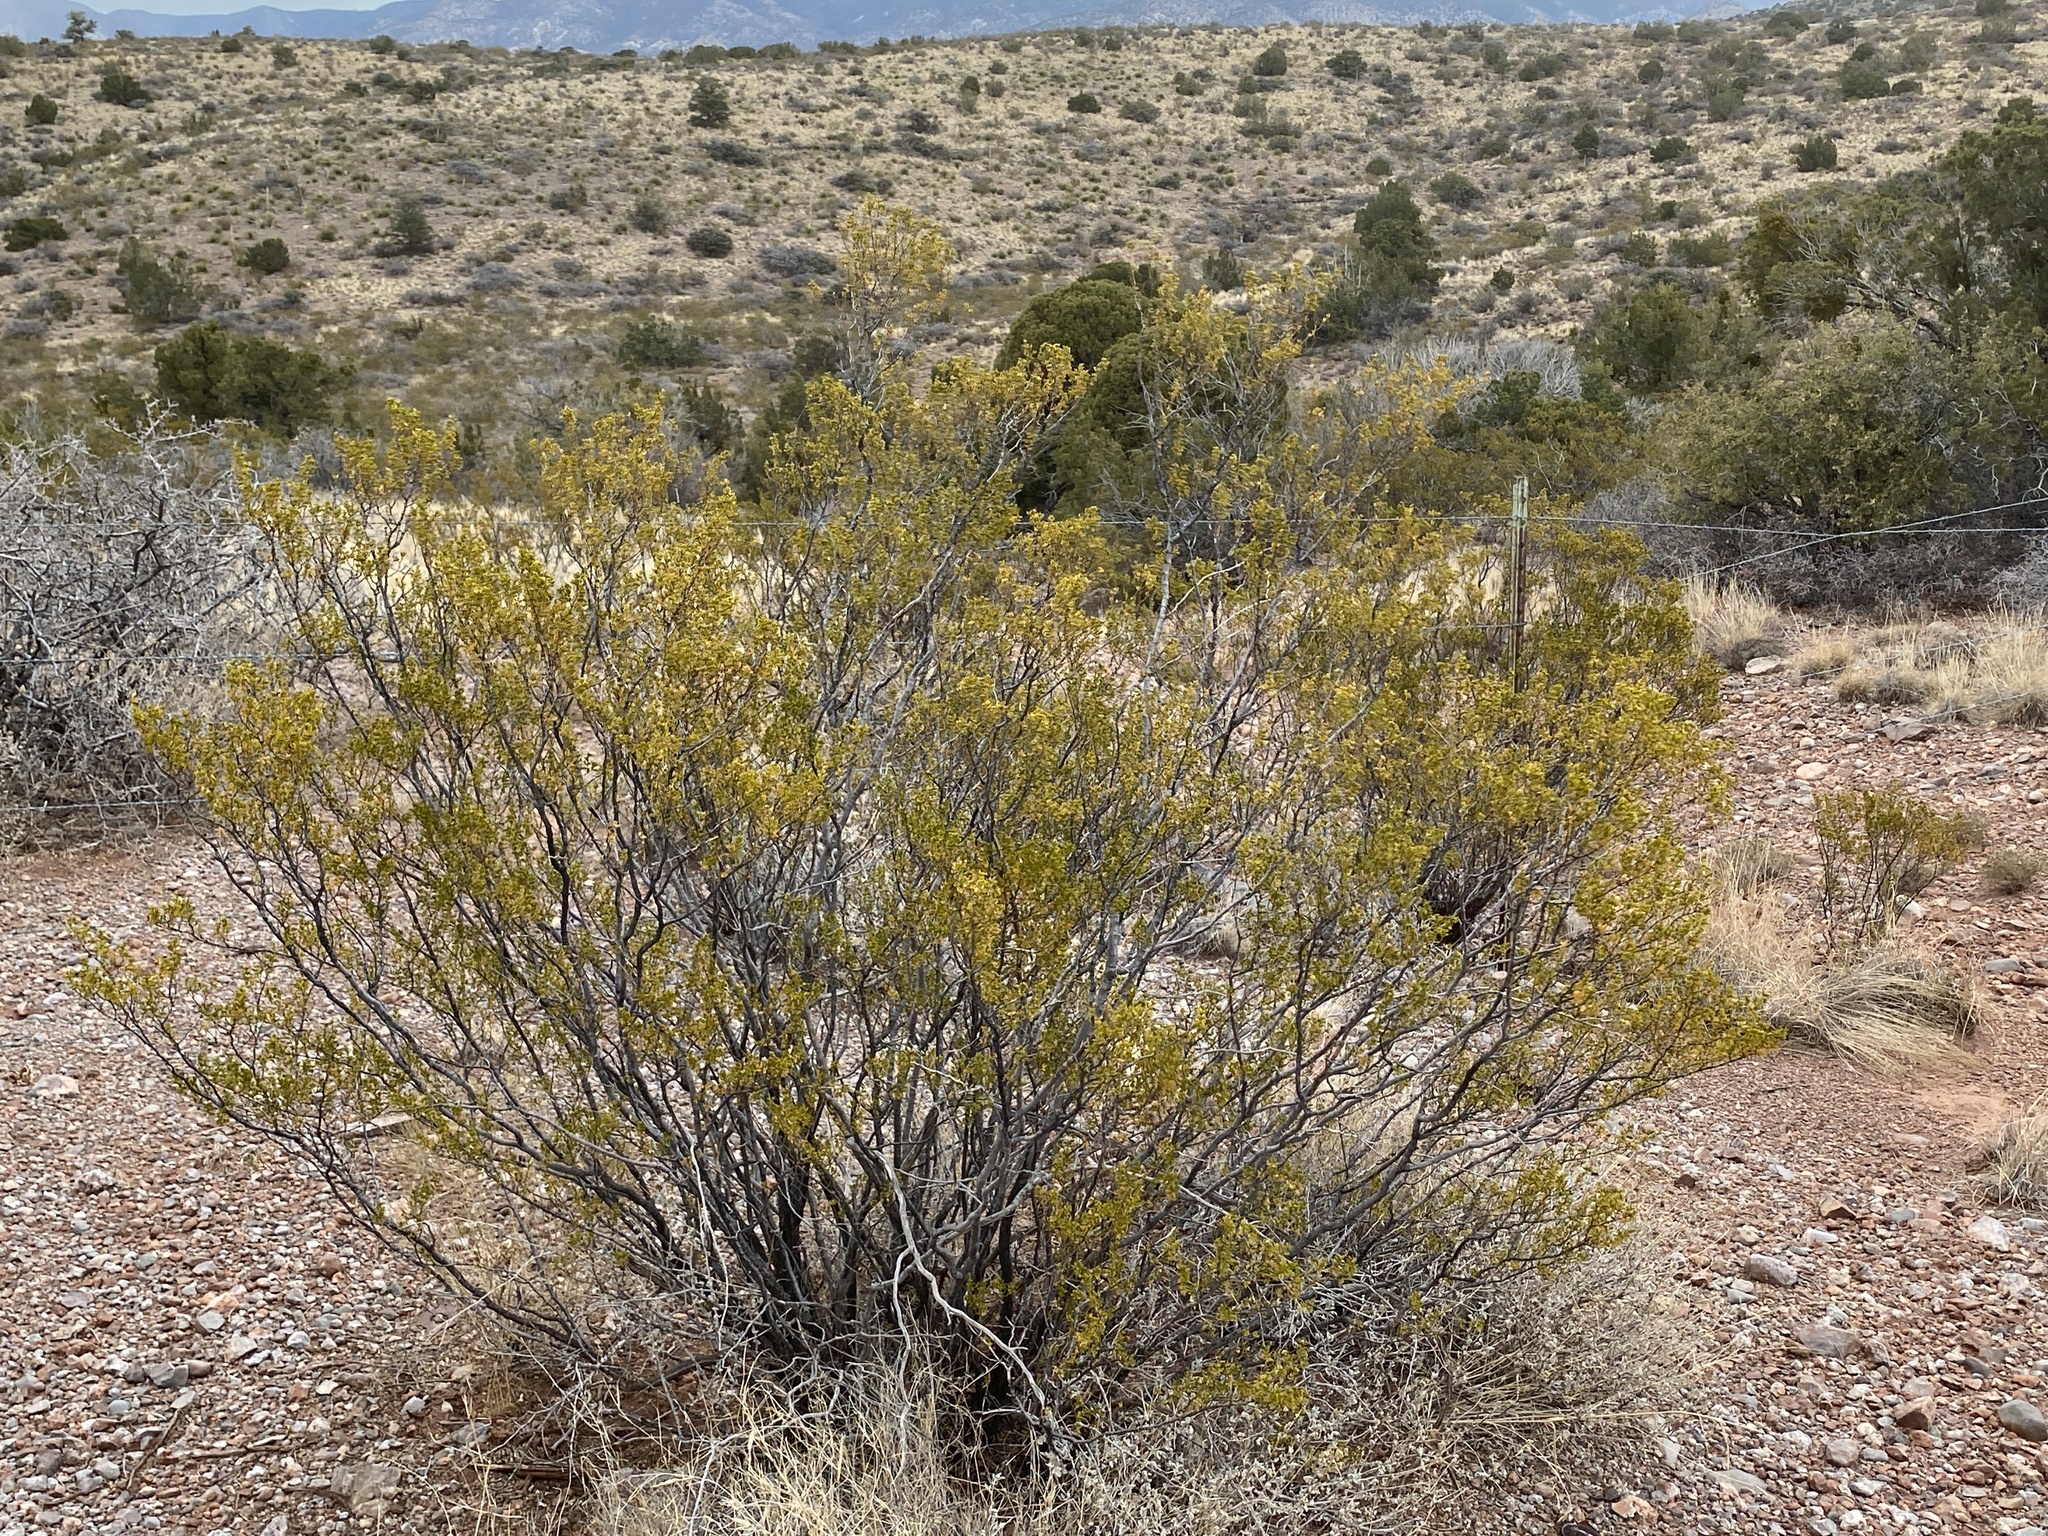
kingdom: Plantae
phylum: Tracheophyta
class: Magnoliopsida
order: Zygophyllales
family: Zygophyllaceae
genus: Larrea
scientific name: Larrea tridentata
